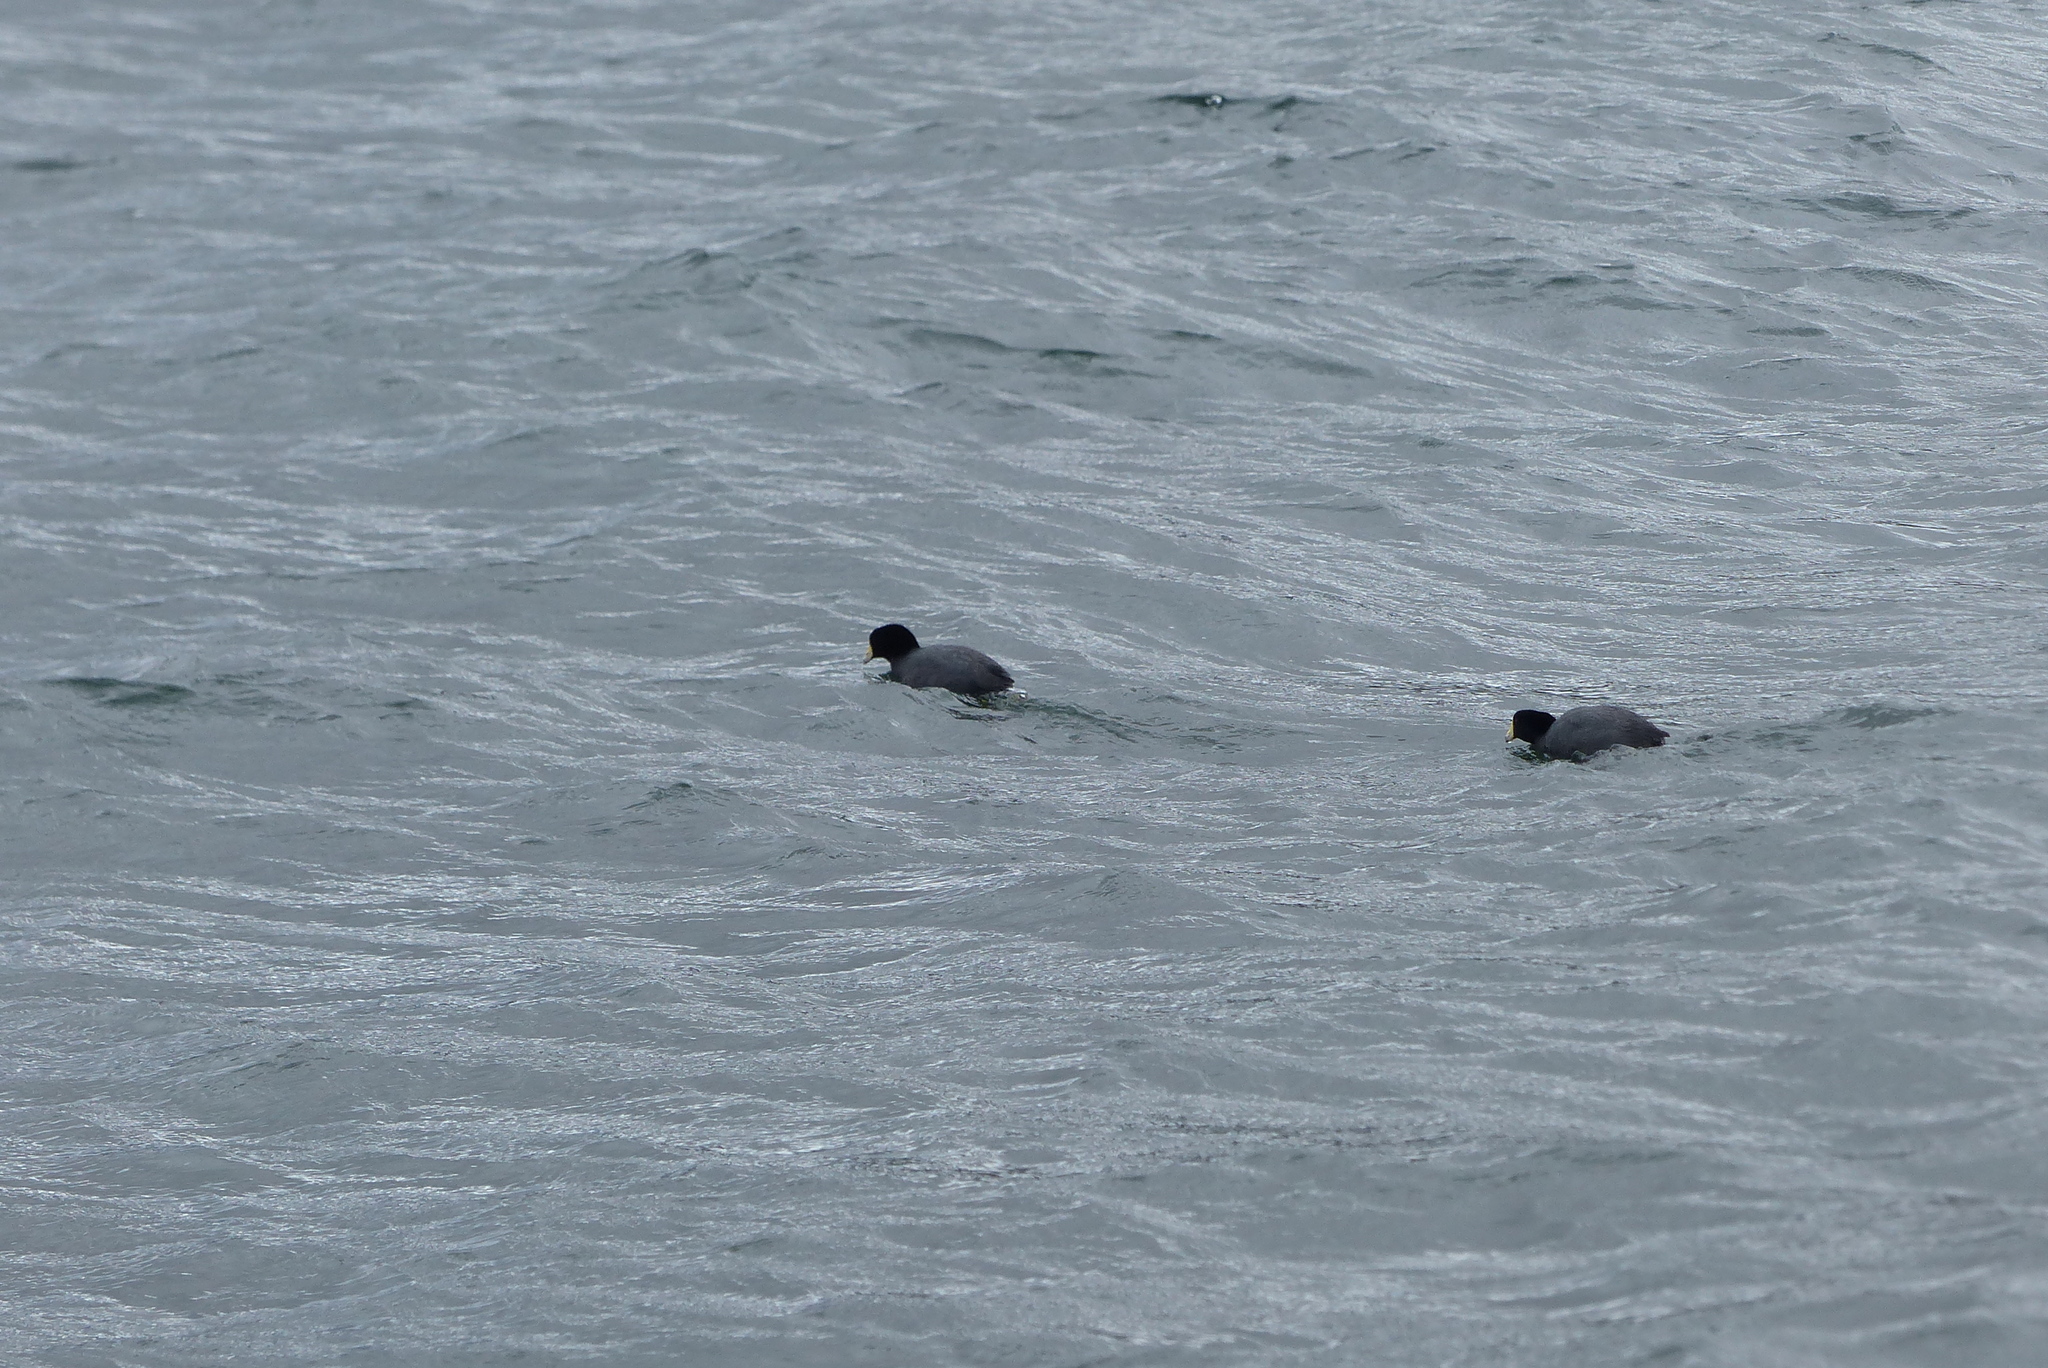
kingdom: Animalia
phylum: Chordata
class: Aves
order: Gruiformes
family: Rallidae
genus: Fulica
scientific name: Fulica americana
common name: American coot
